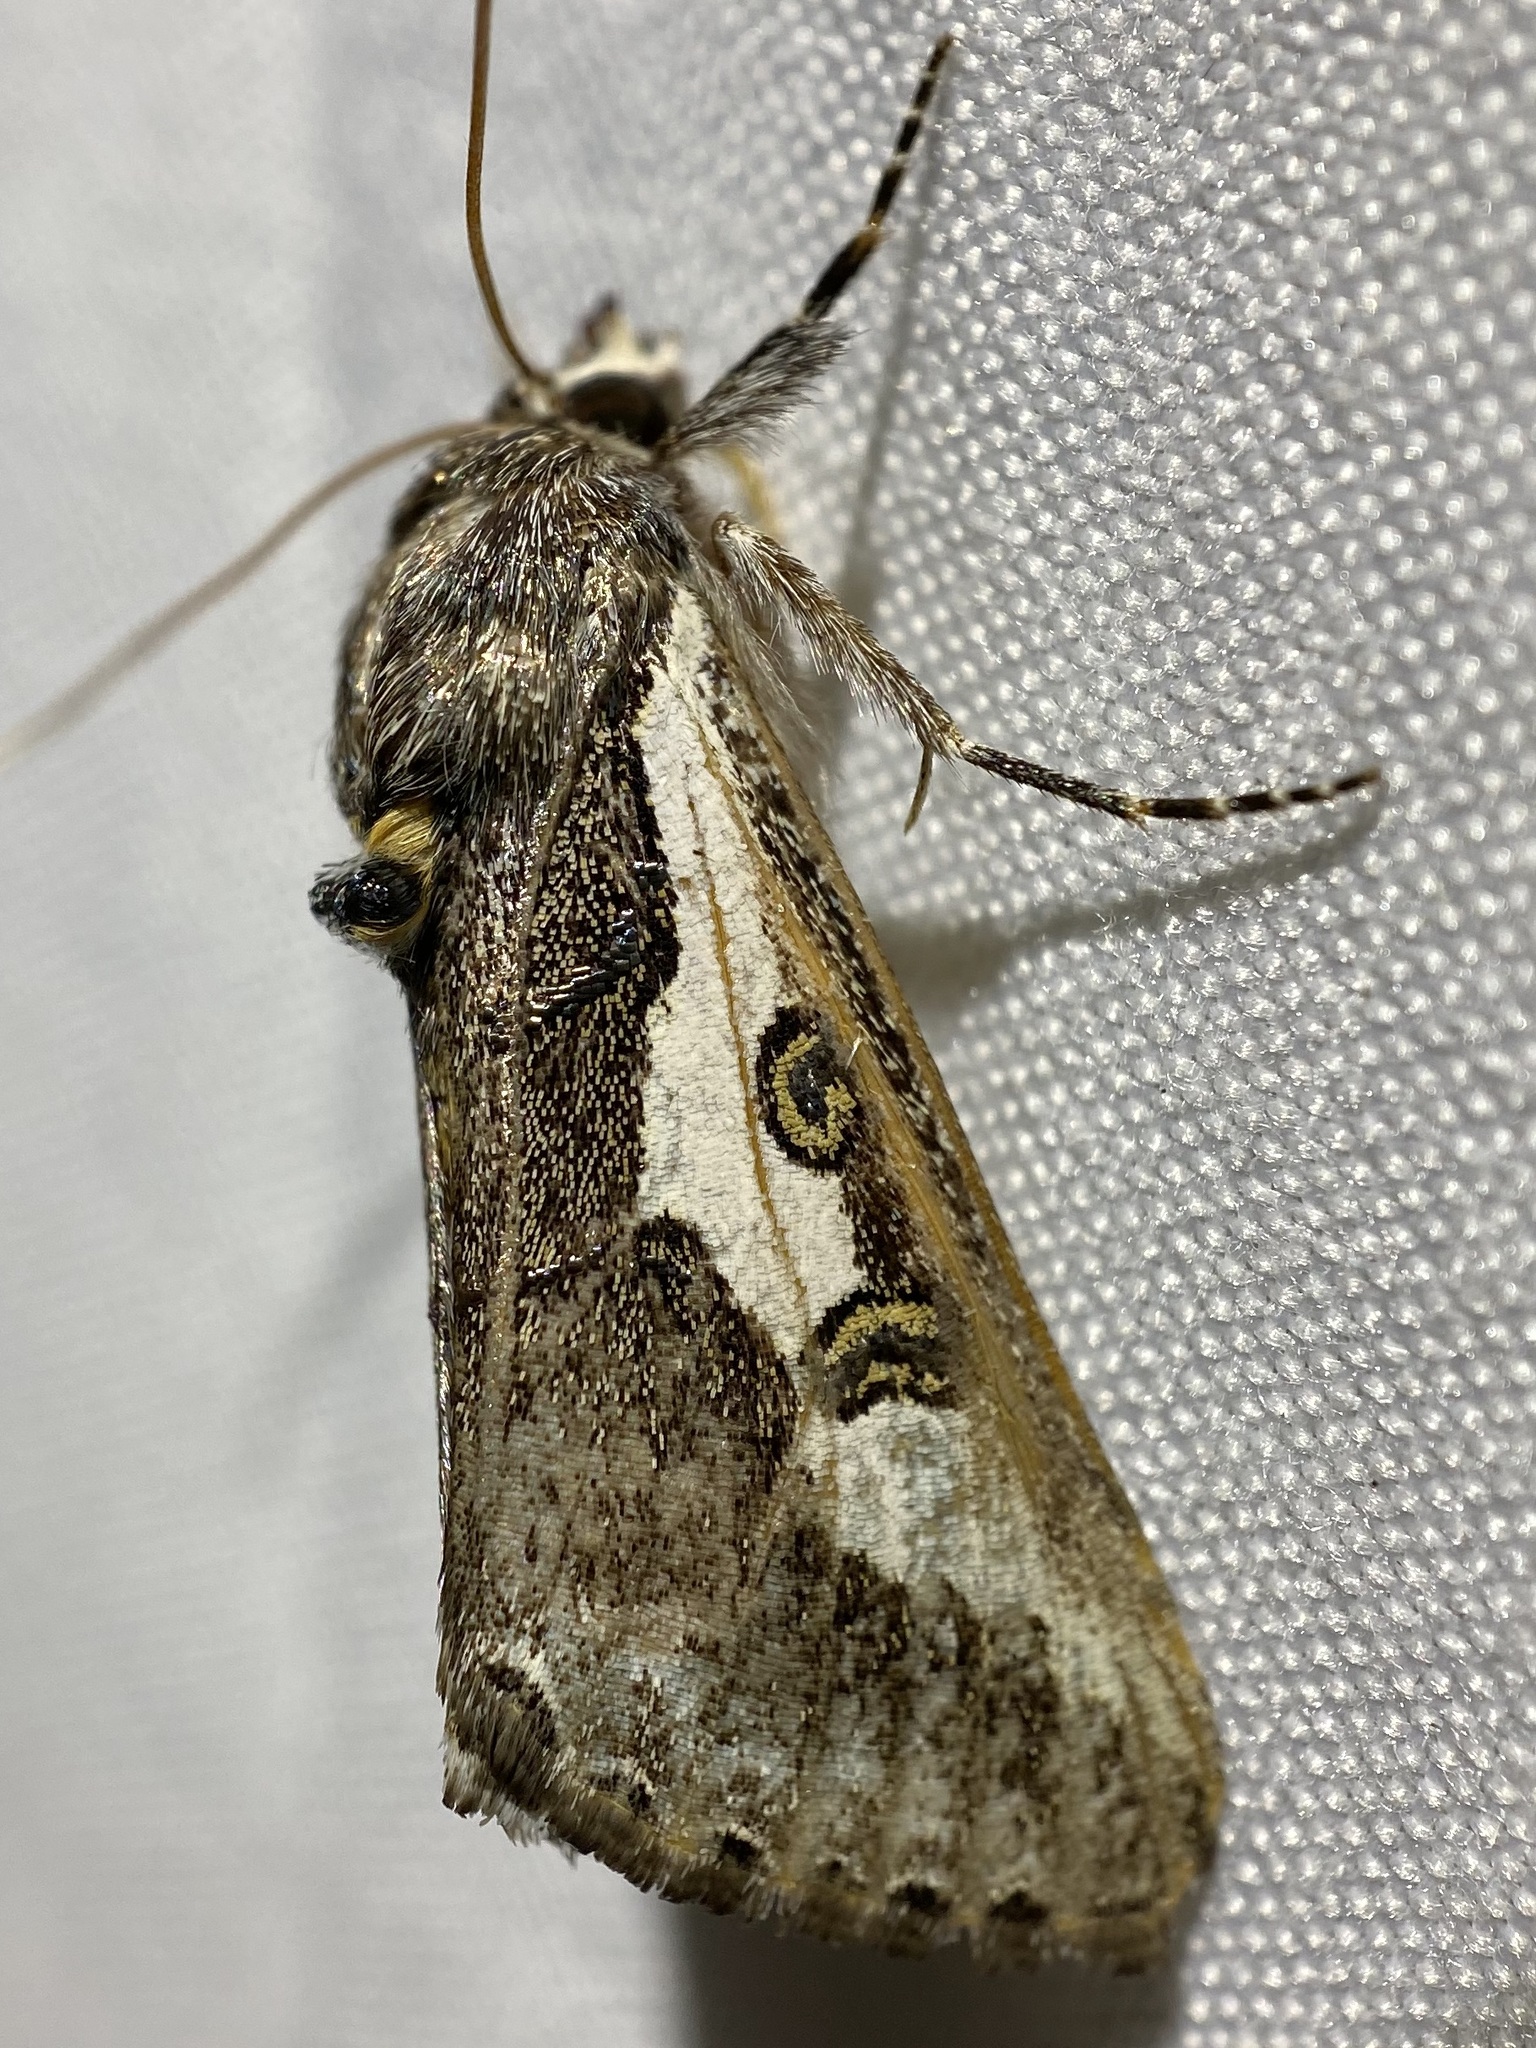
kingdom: Animalia
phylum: Arthropoda
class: Insecta
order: Lepidoptera
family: Noctuidae
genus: Euscirrhopterus
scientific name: Euscirrhopterus gloveri
